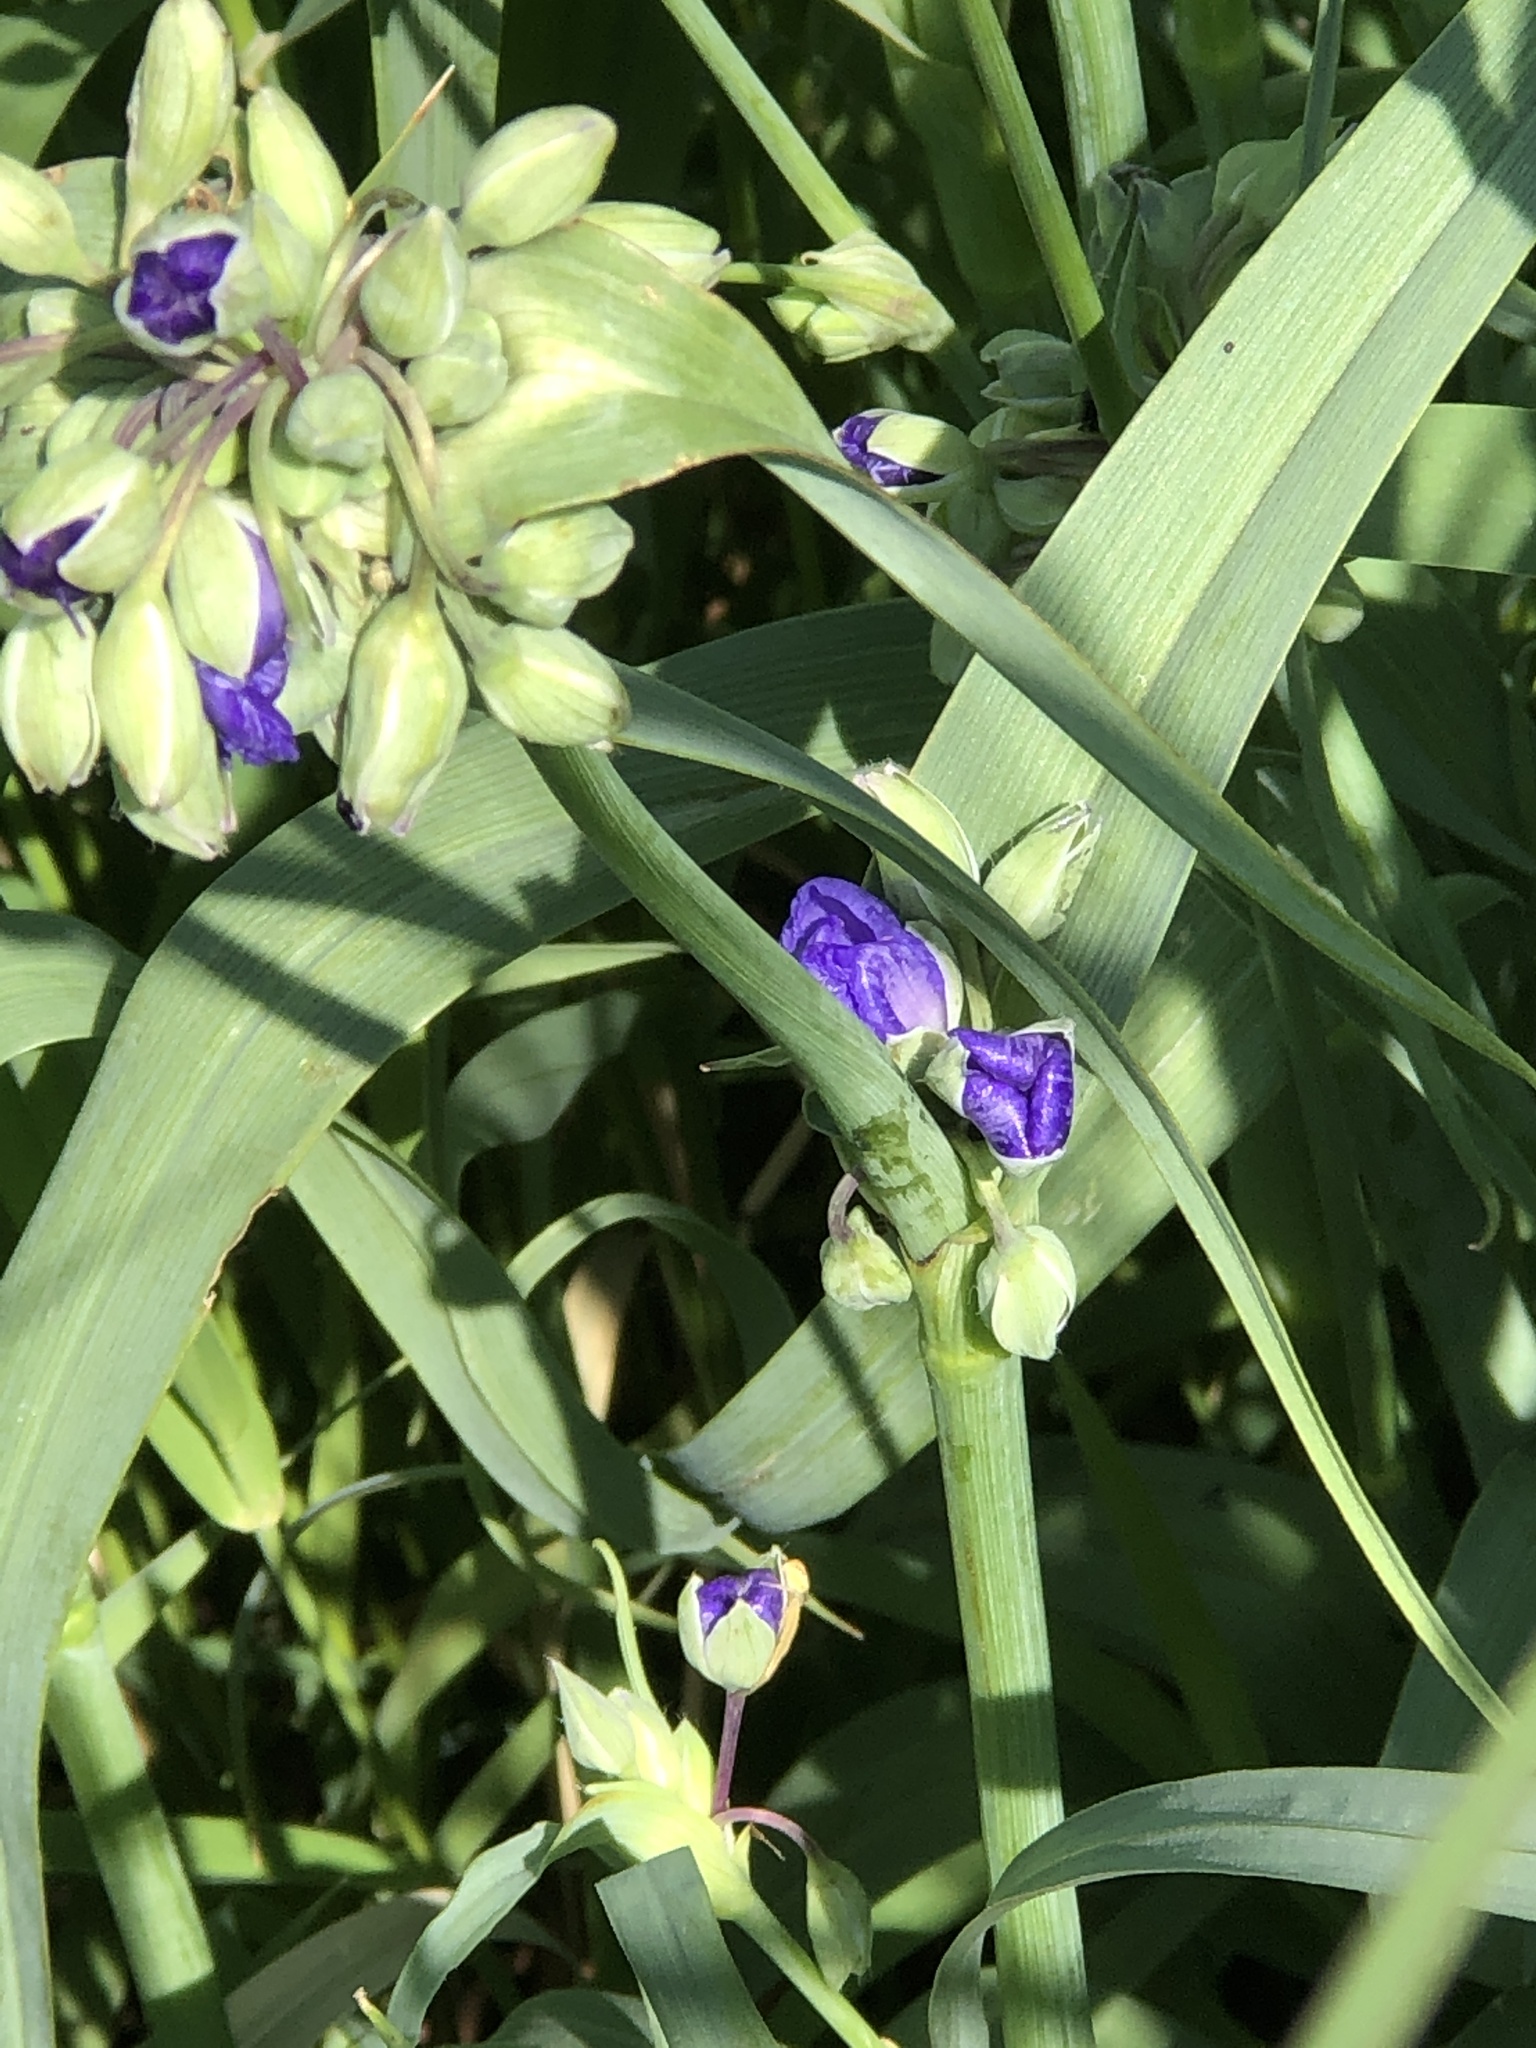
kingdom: Plantae
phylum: Tracheophyta
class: Liliopsida
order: Commelinales
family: Commelinaceae
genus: Tradescantia
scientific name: Tradescantia ohiensis
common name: Ohio spiderwort
